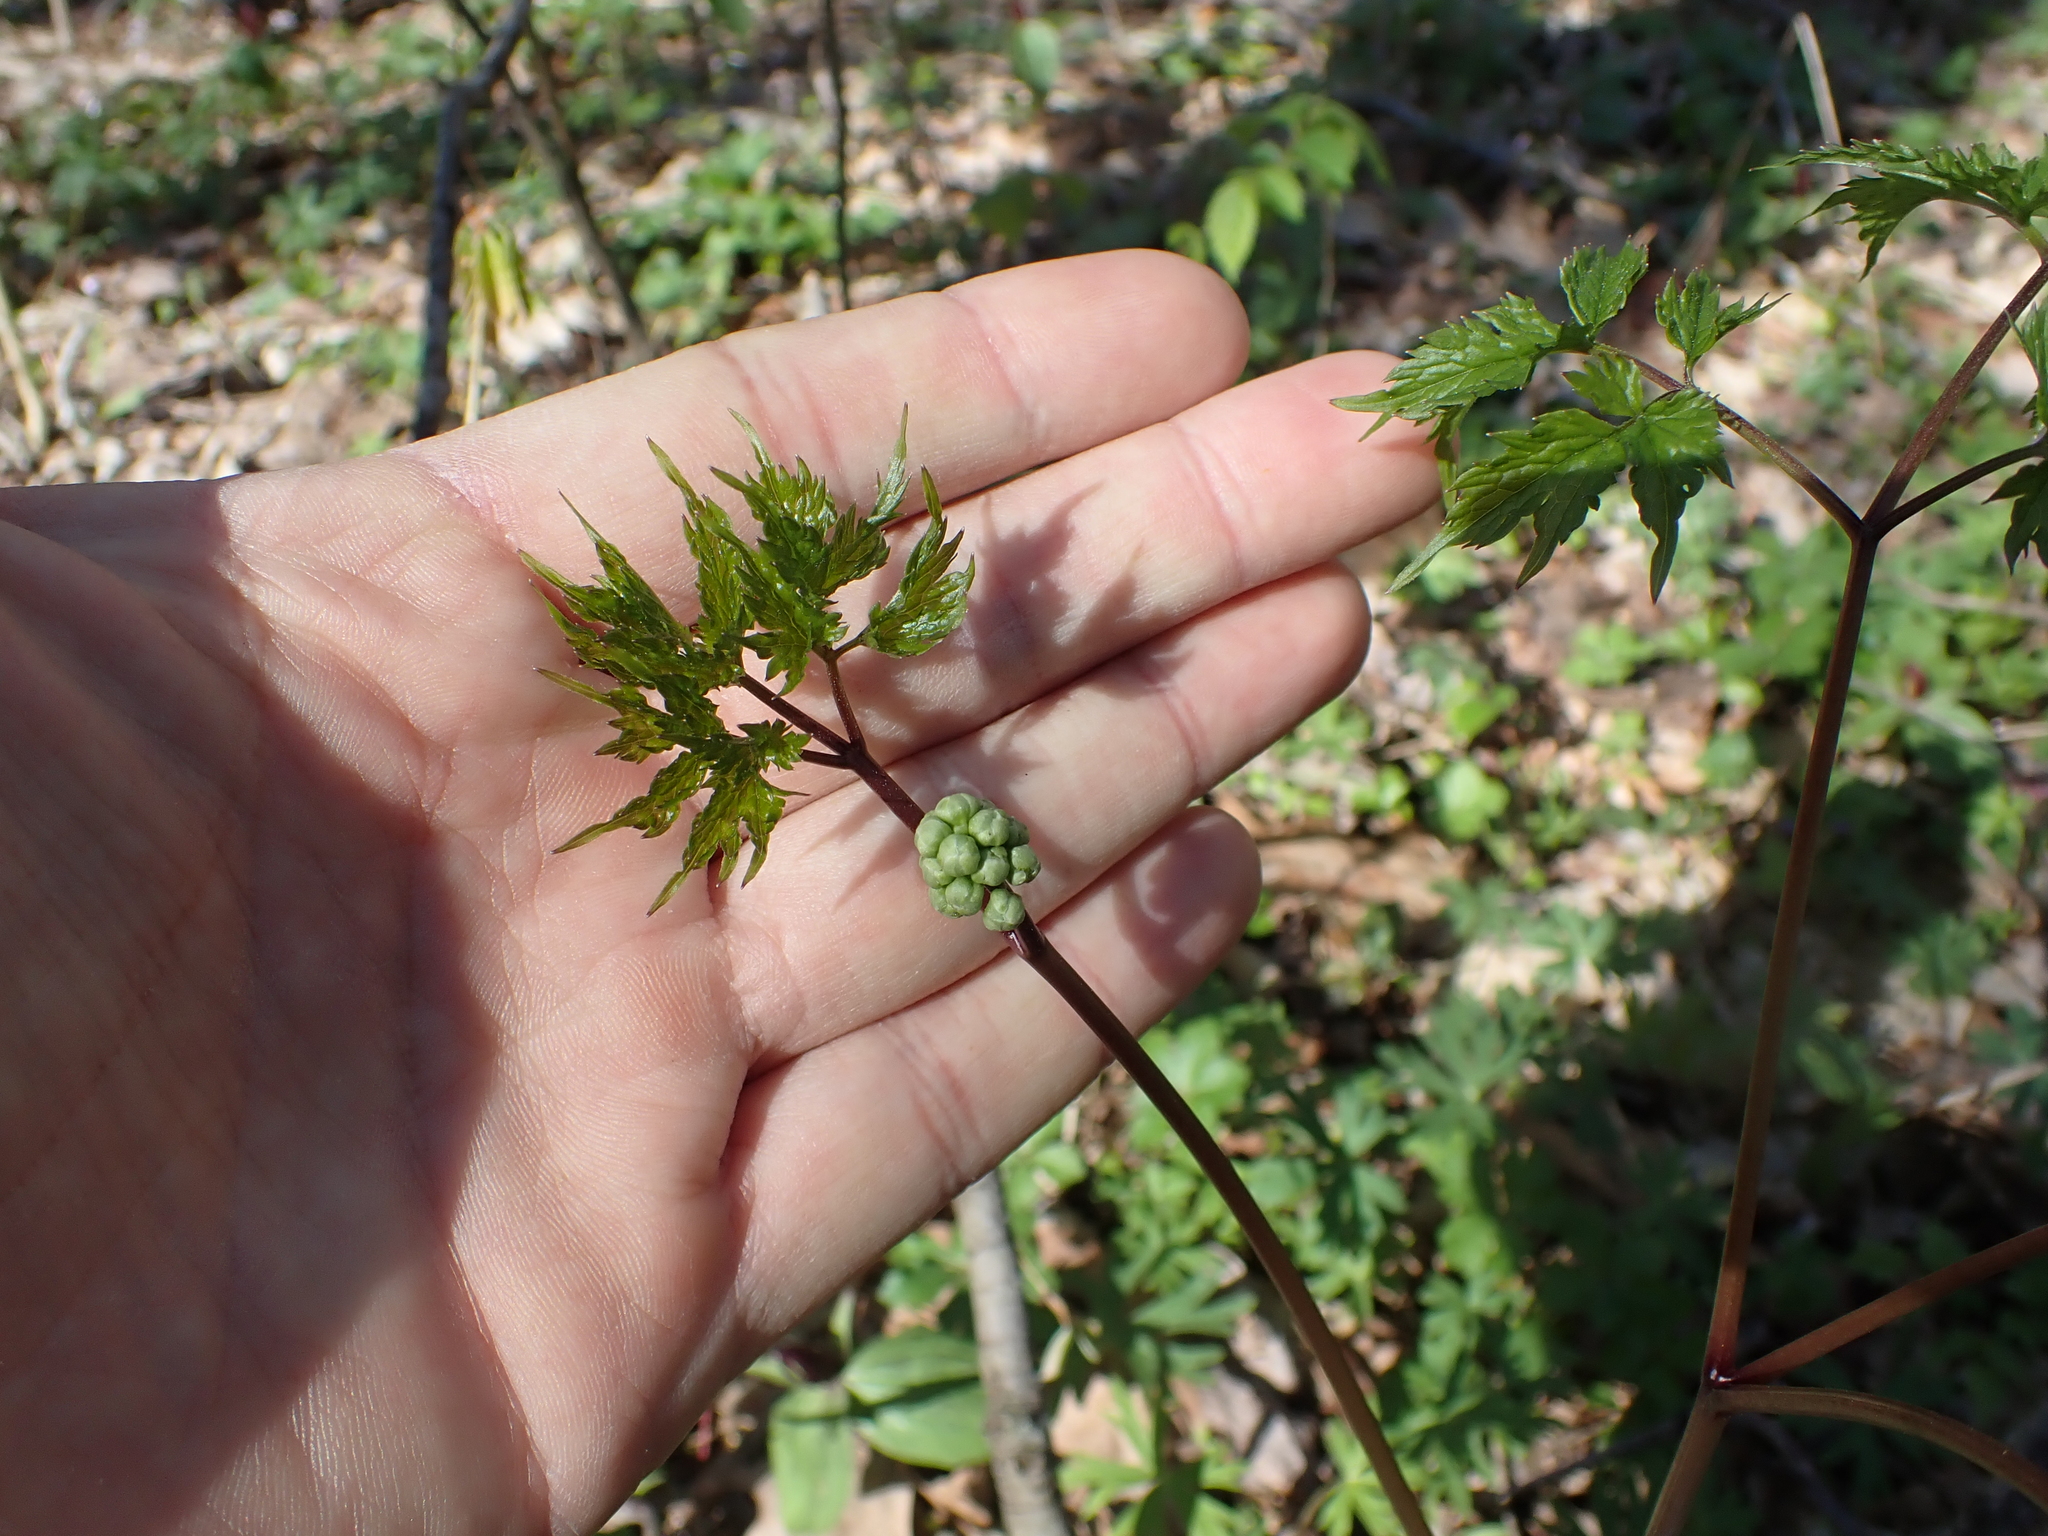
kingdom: Plantae
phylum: Tracheophyta
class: Magnoliopsida
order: Ranunculales
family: Ranunculaceae
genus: Actaea
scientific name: Actaea pachypoda
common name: Doll's-eyes
